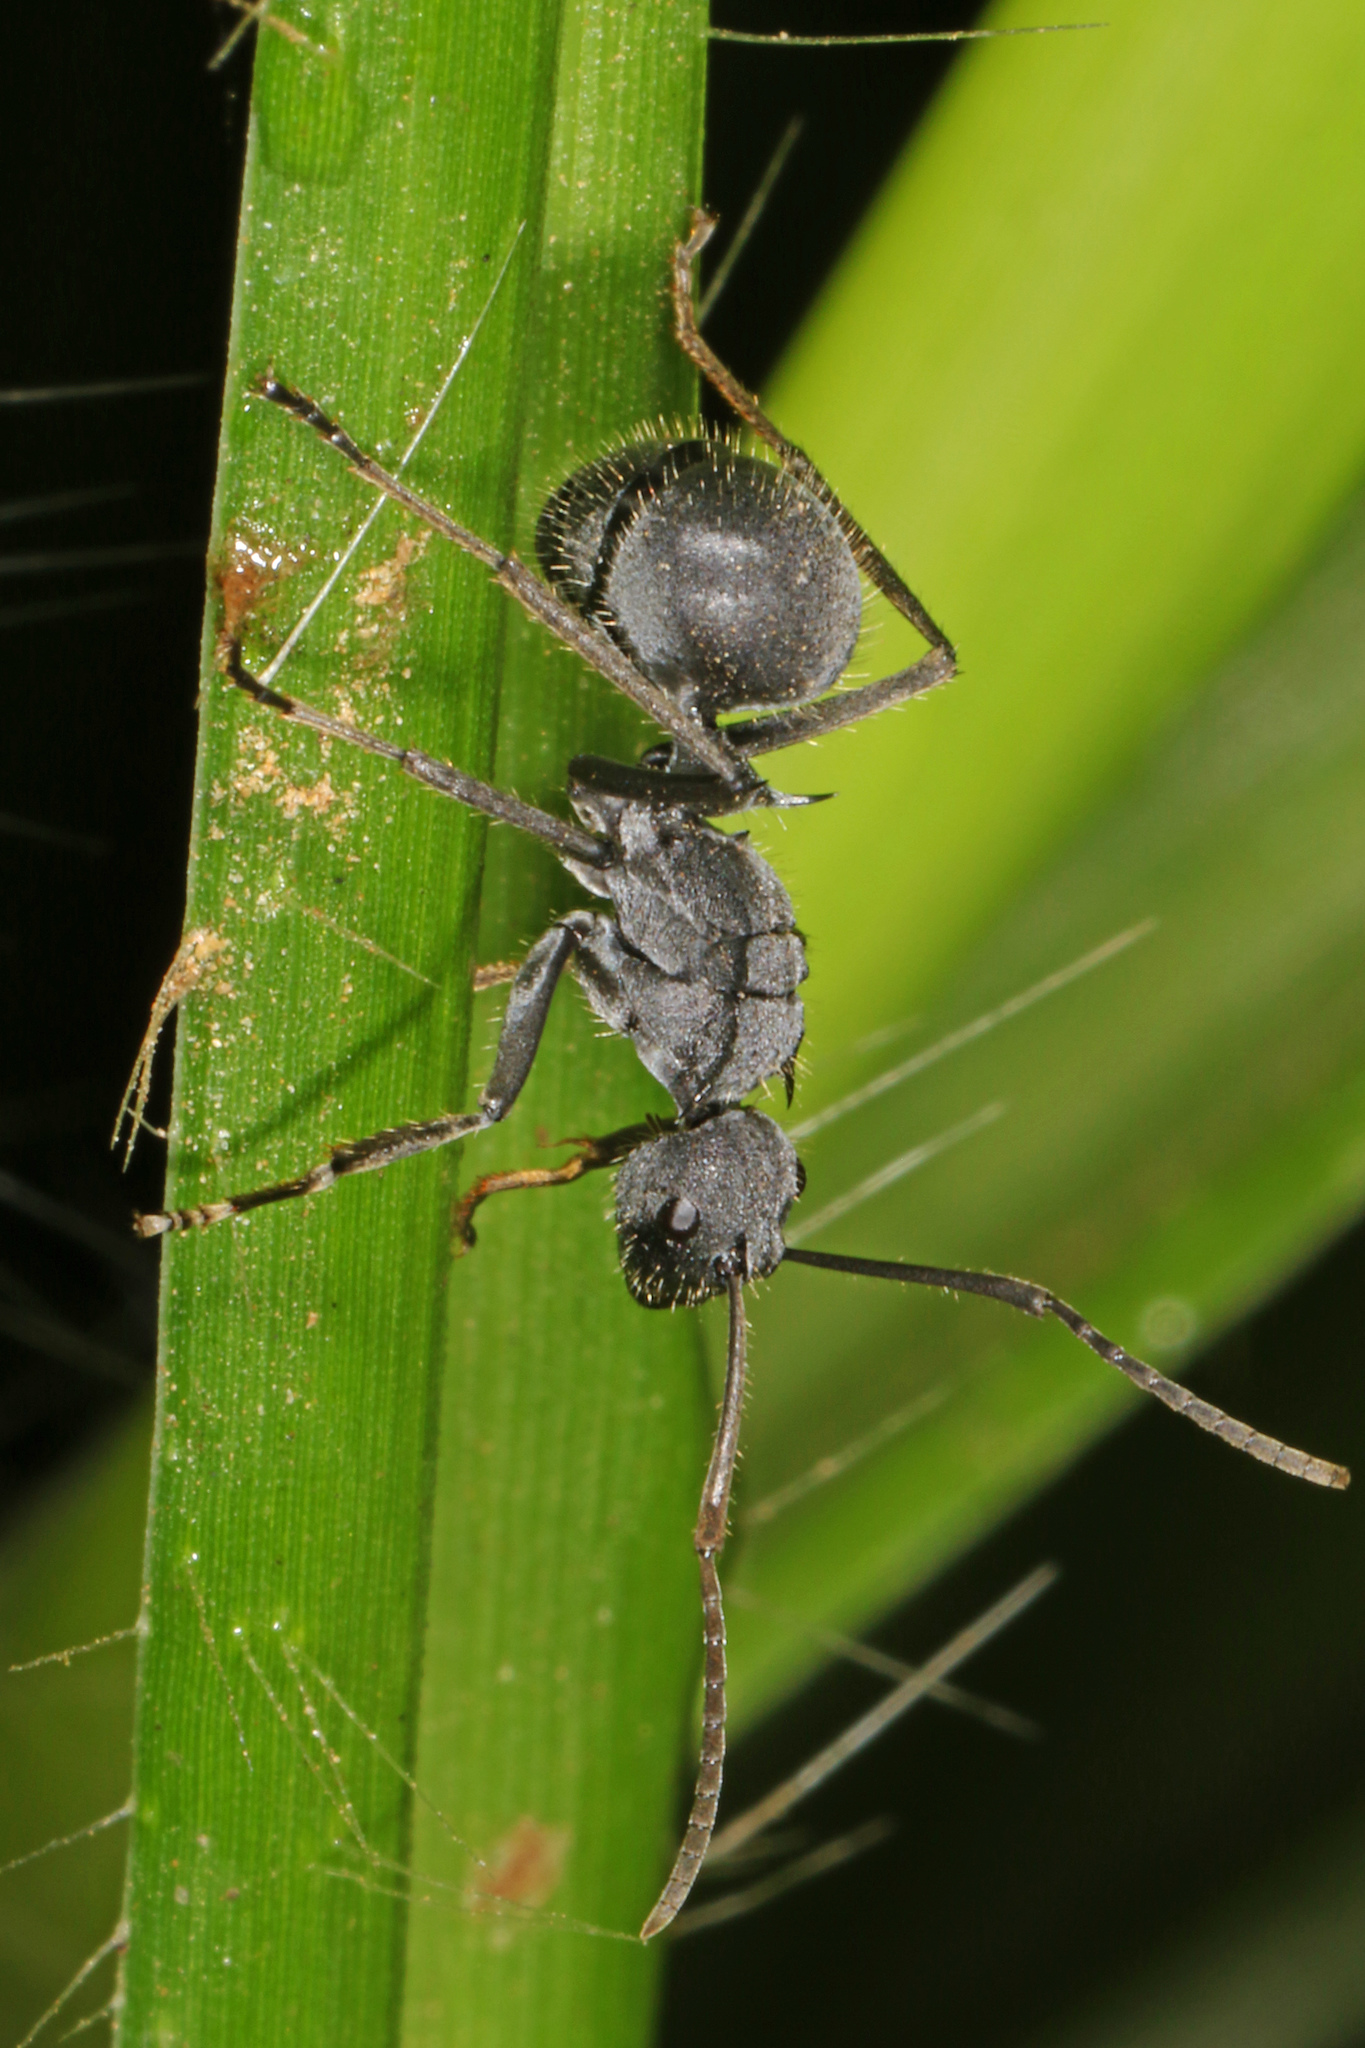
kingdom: Animalia
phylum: Arthropoda
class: Insecta
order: Hymenoptera
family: Formicidae
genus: Polyrhachis
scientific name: Polyrhachis schistacea
